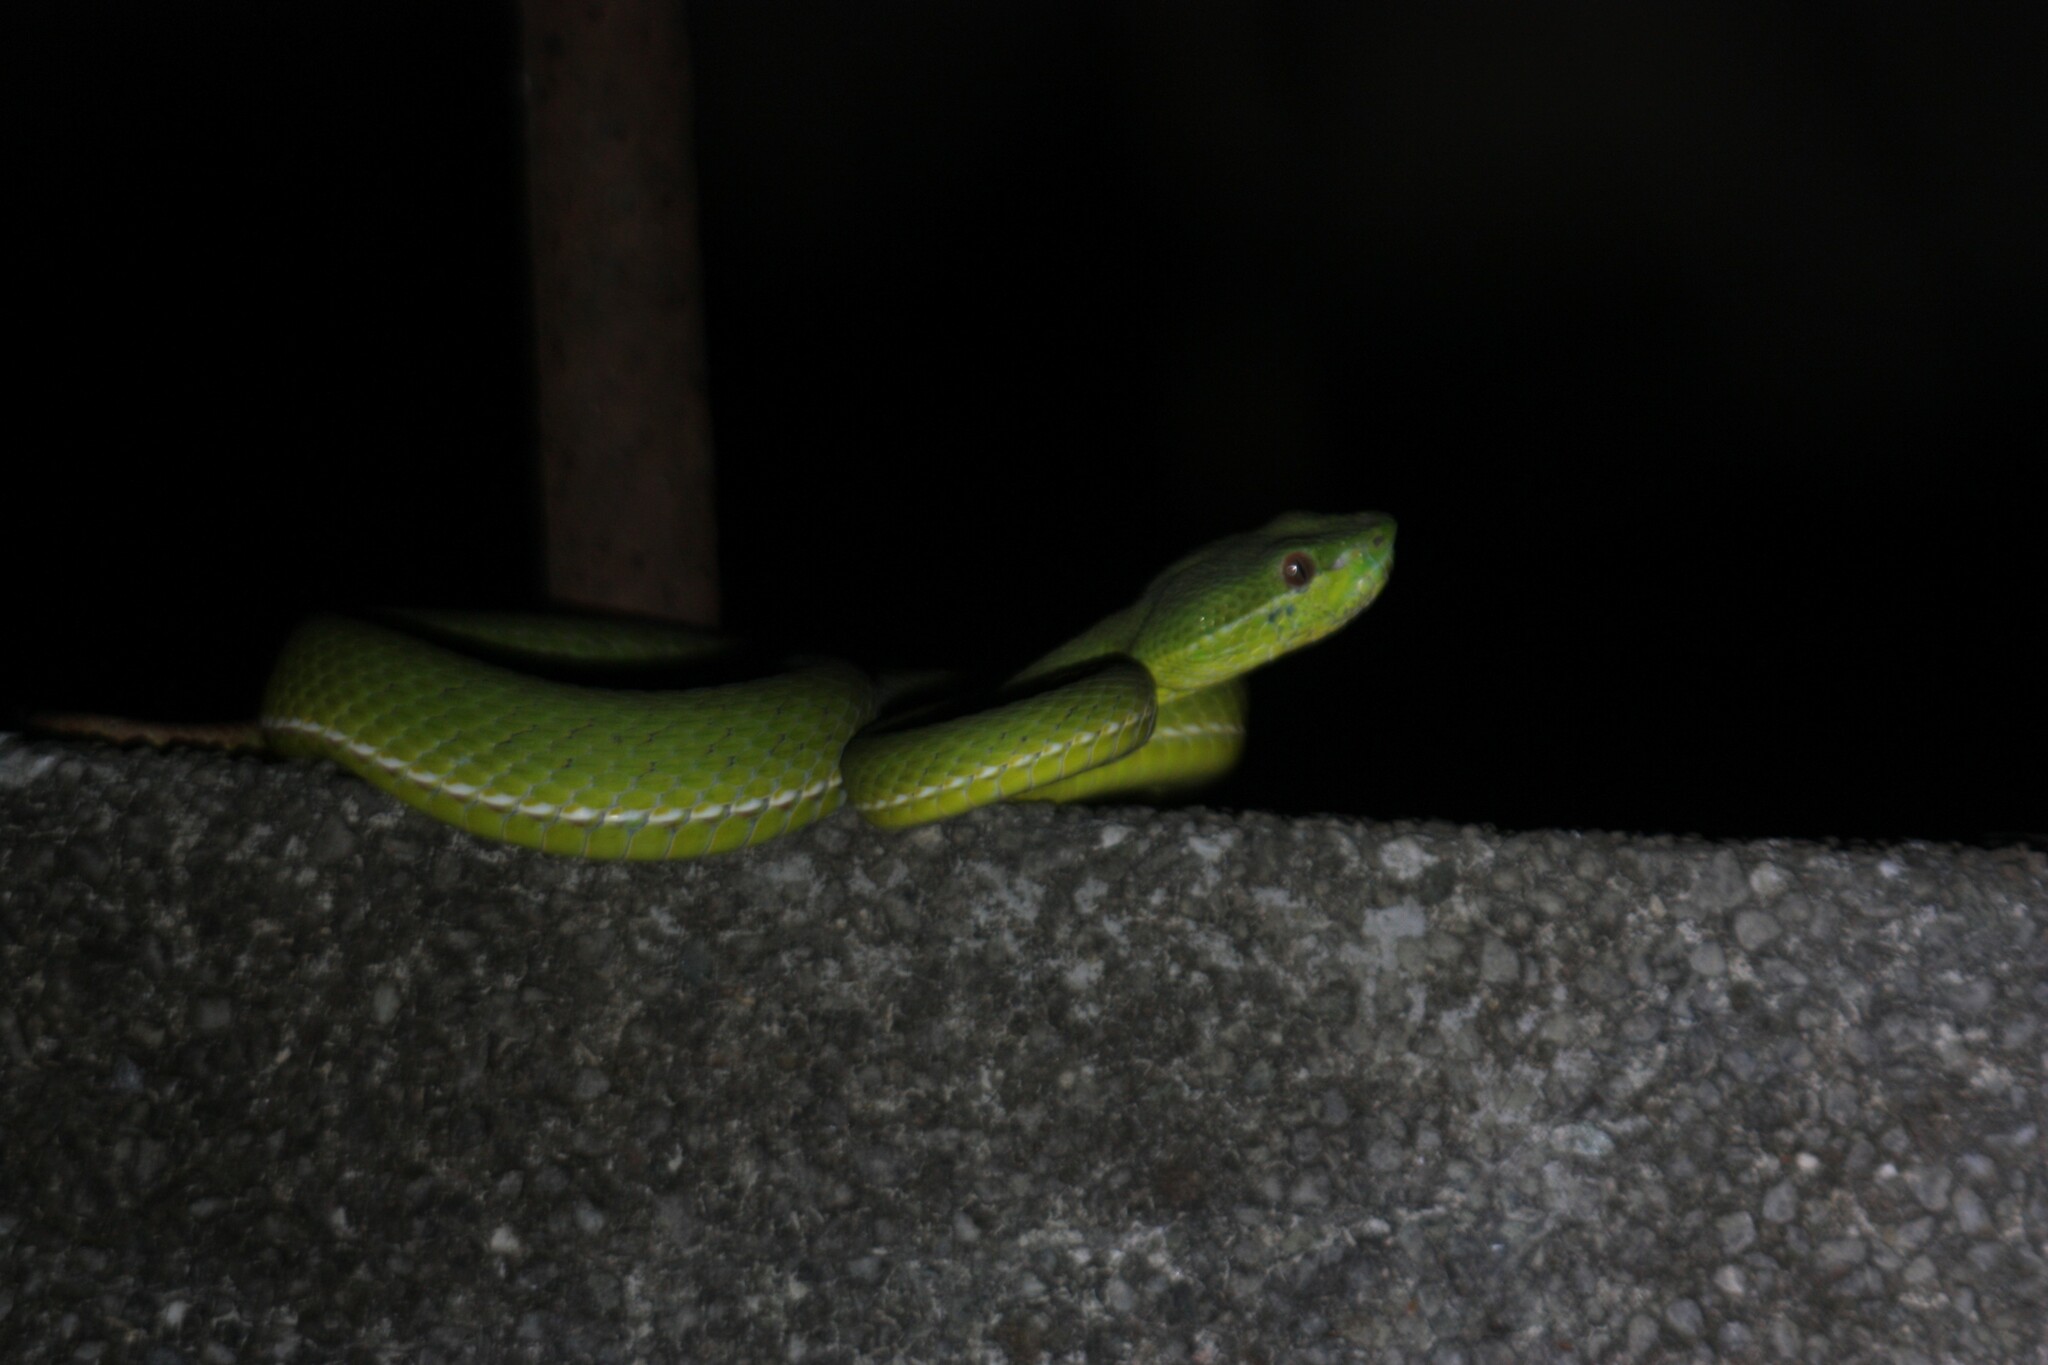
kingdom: Animalia
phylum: Chordata
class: Squamata
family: Viperidae
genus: Trimeresurus
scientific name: Trimeresurus stejnegeri
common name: Chen’s bamboo pit viper
